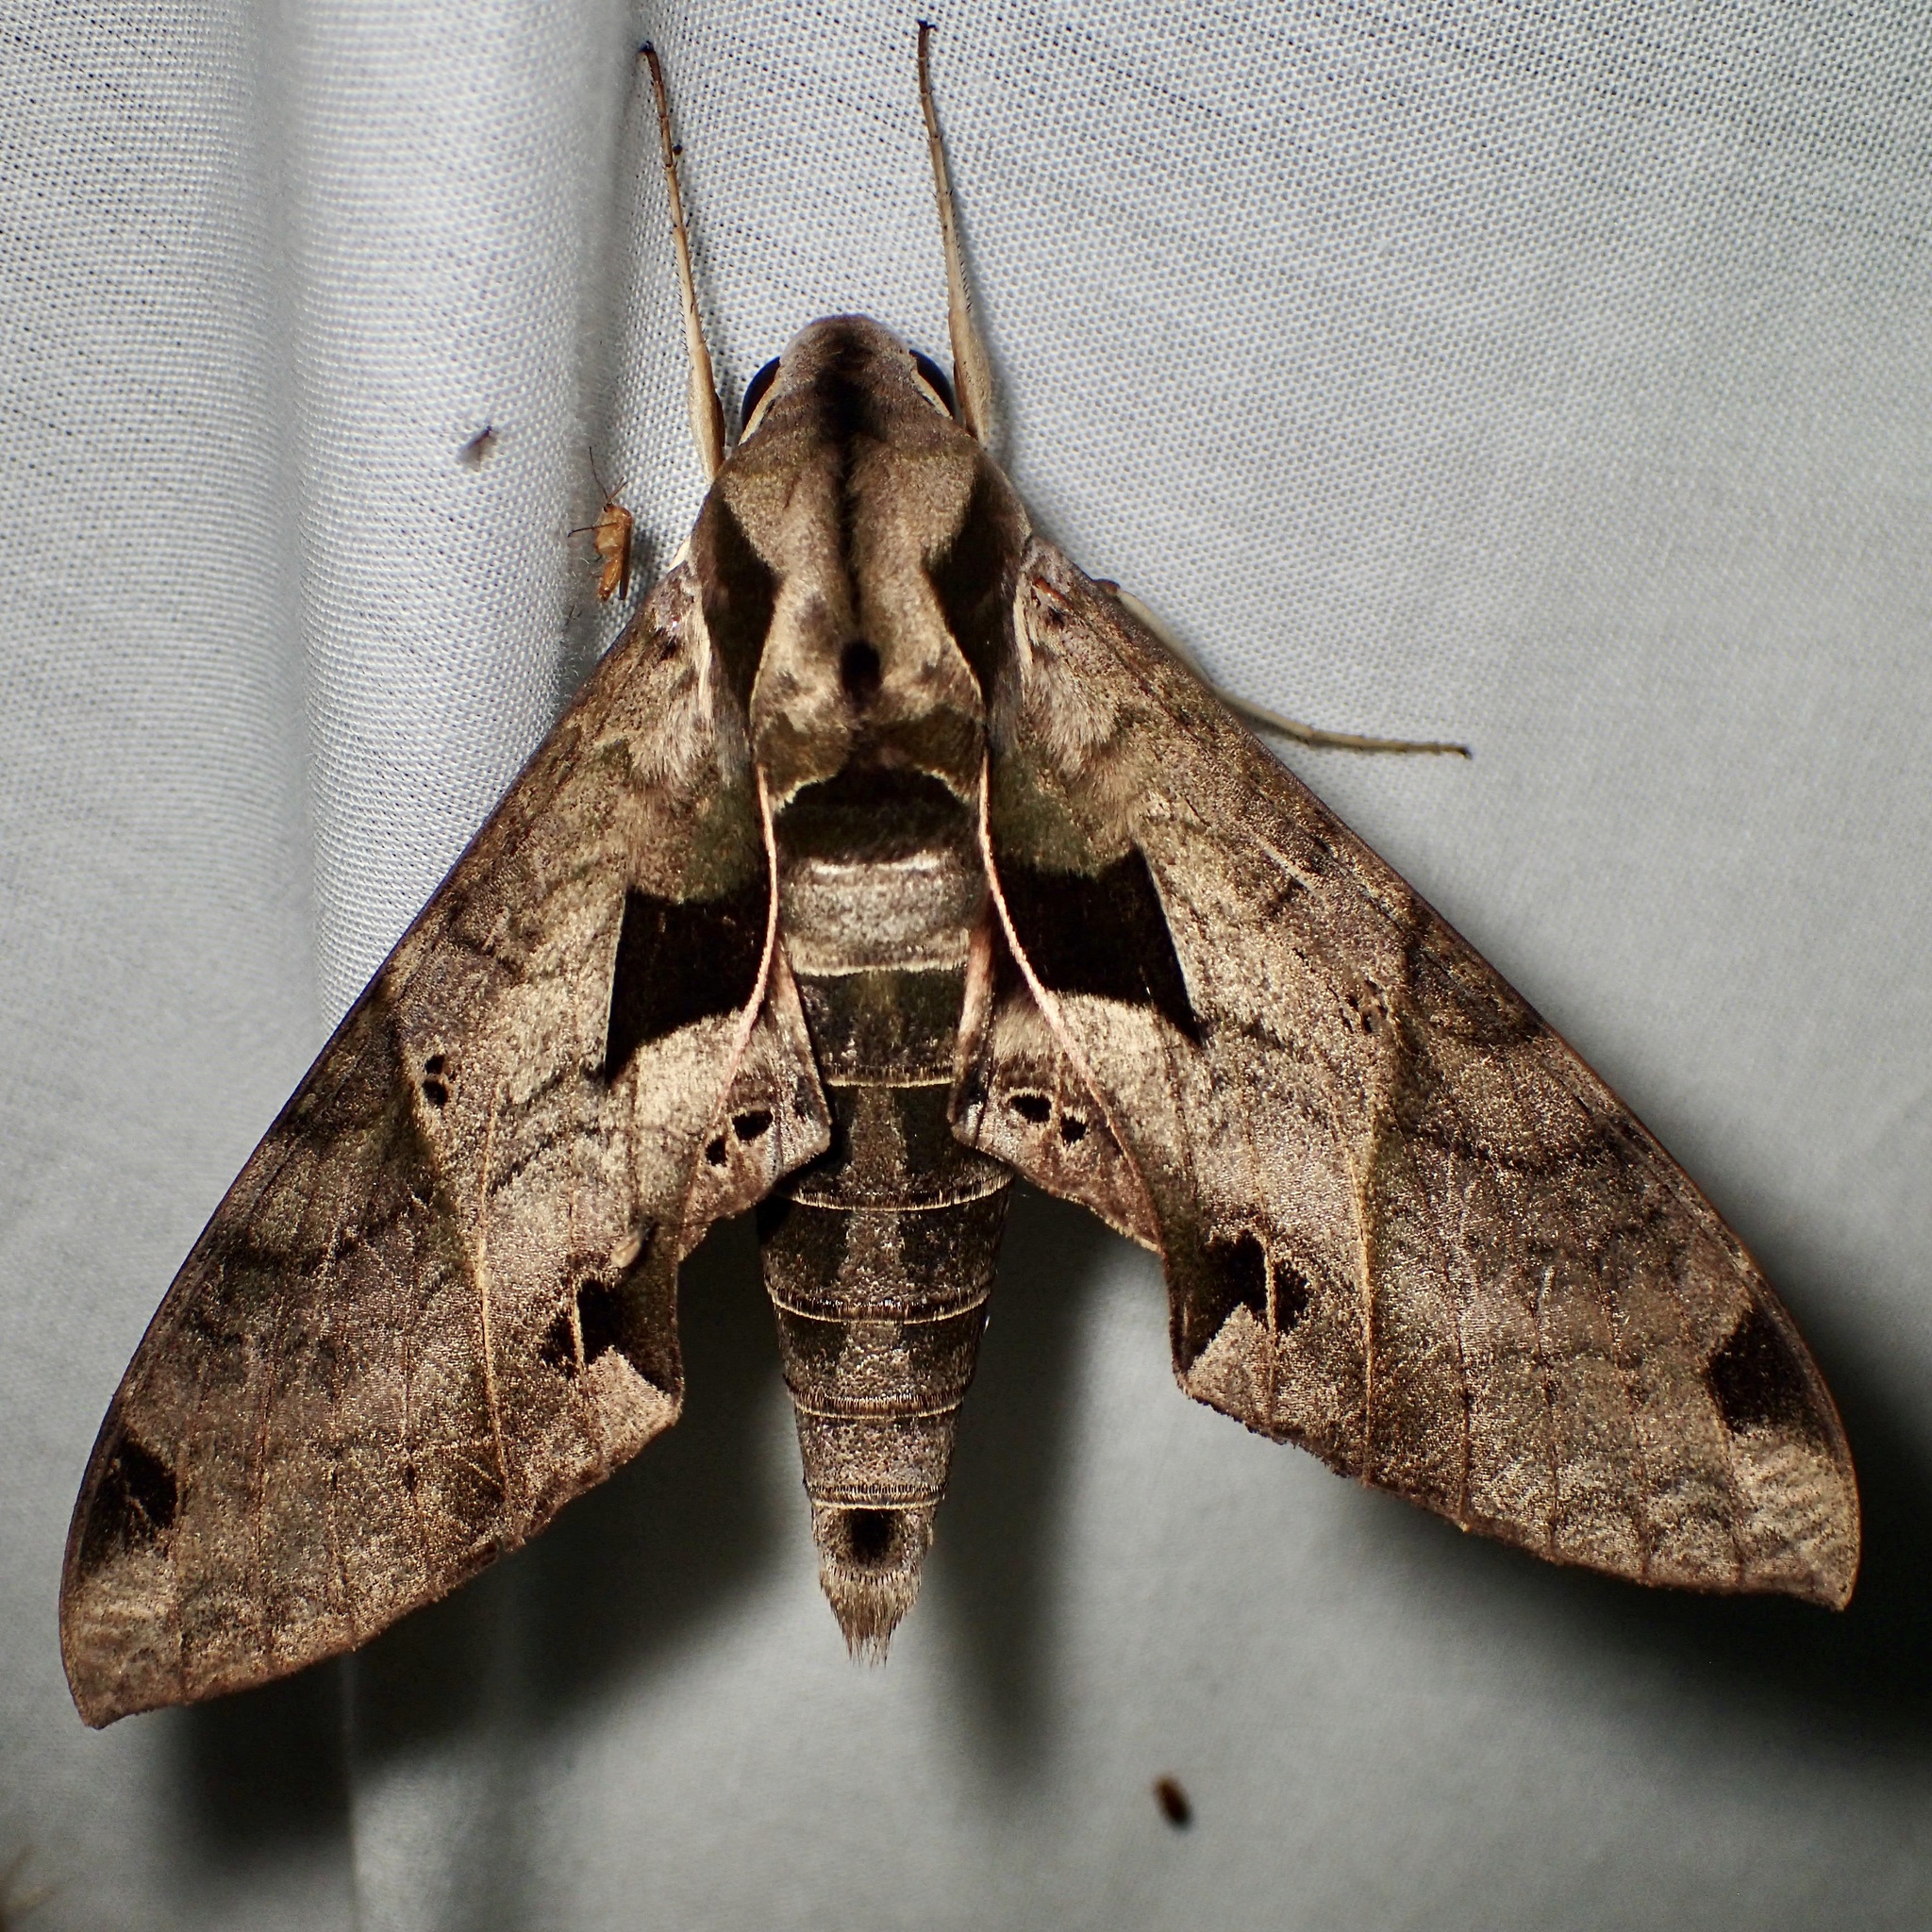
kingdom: Animalia
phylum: Arthropoda
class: Insecta
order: Lepidoptera
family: Sphingidae
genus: Eumorpha
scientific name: Eumorpha satellitia
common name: Satellite sphinx
